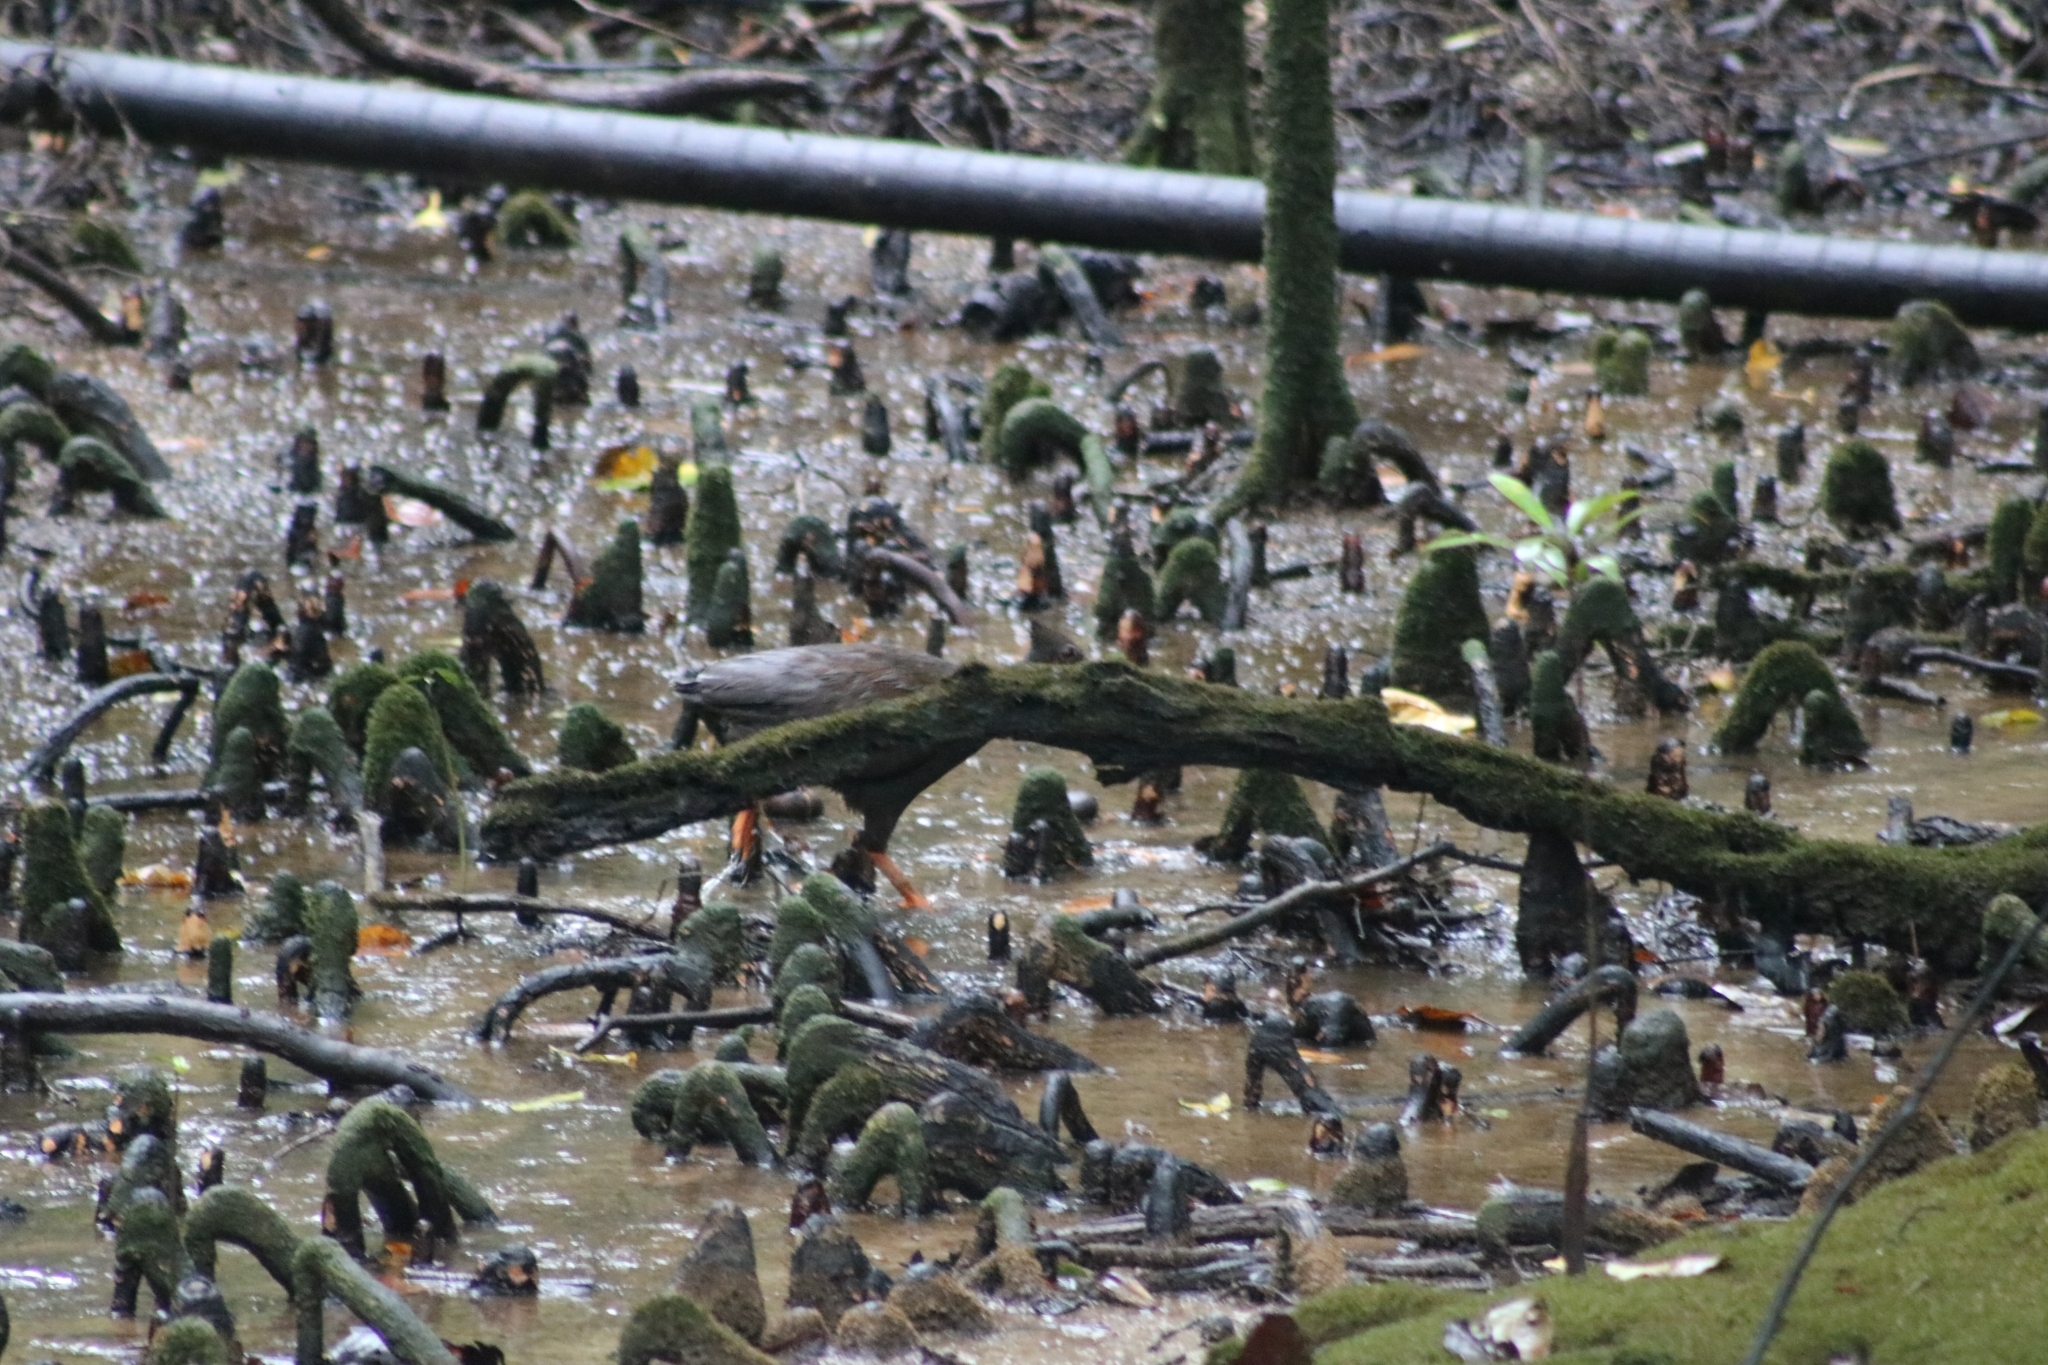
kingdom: Animalia
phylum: Chordata
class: Aves
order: Galliformes
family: Megapodiidae
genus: Megapodius
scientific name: Megapodius reinwardt
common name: Orange-footed scrubfowl
